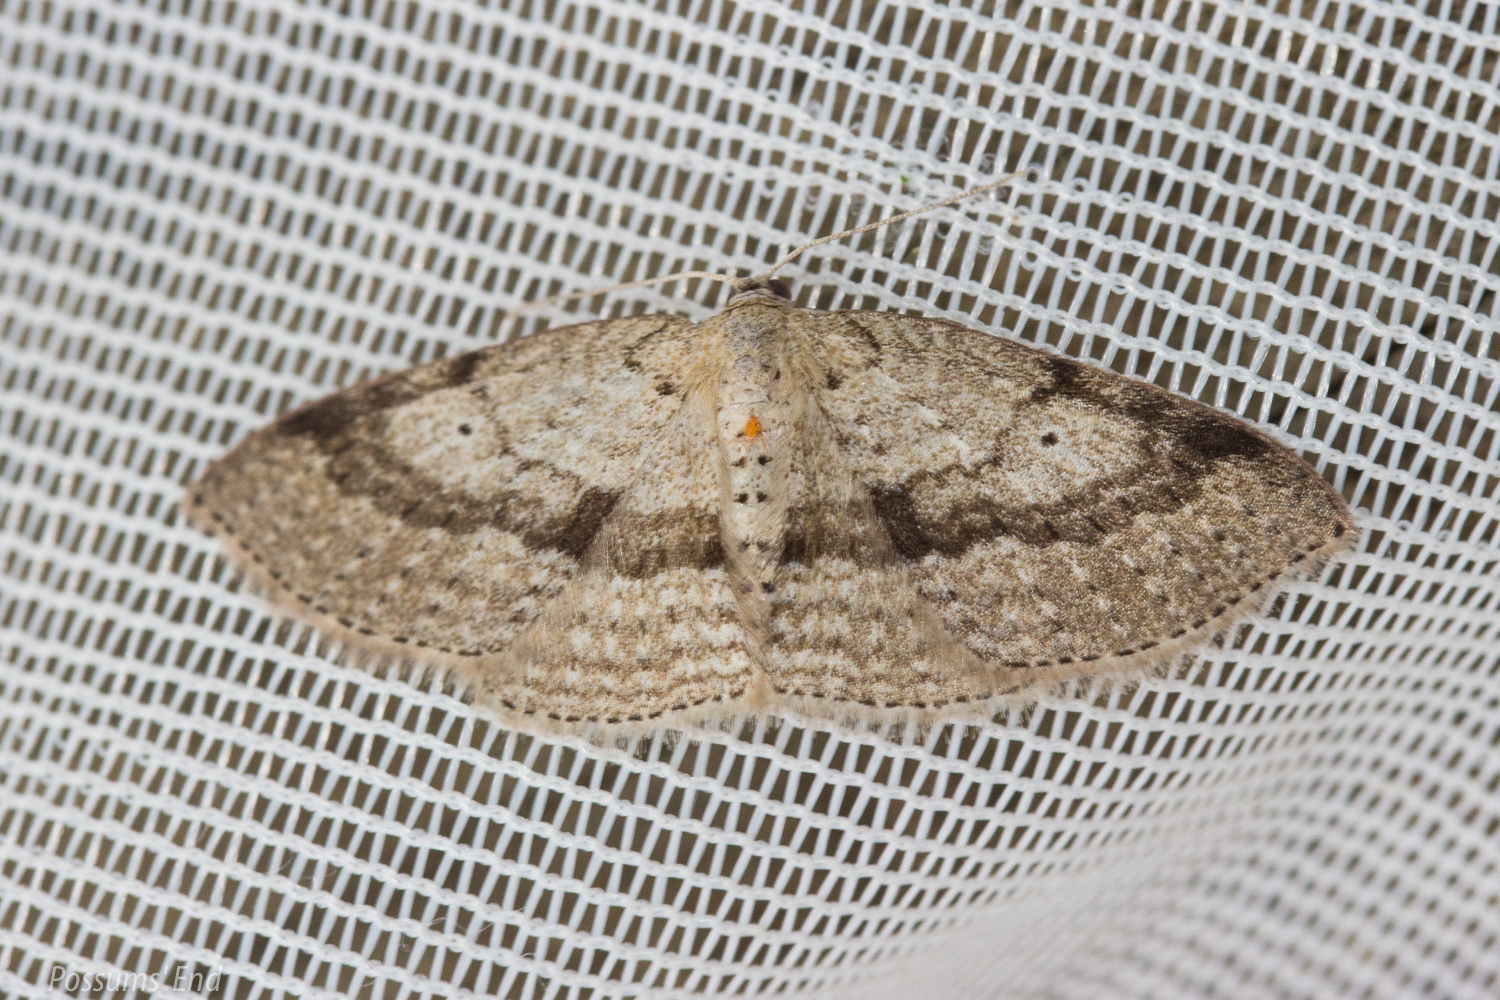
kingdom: Animalia
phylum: Arthropoda
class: Insecta
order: Lepidoptera
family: Geometridae
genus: Poecilasthena
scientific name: Poecilasthena schistaria
